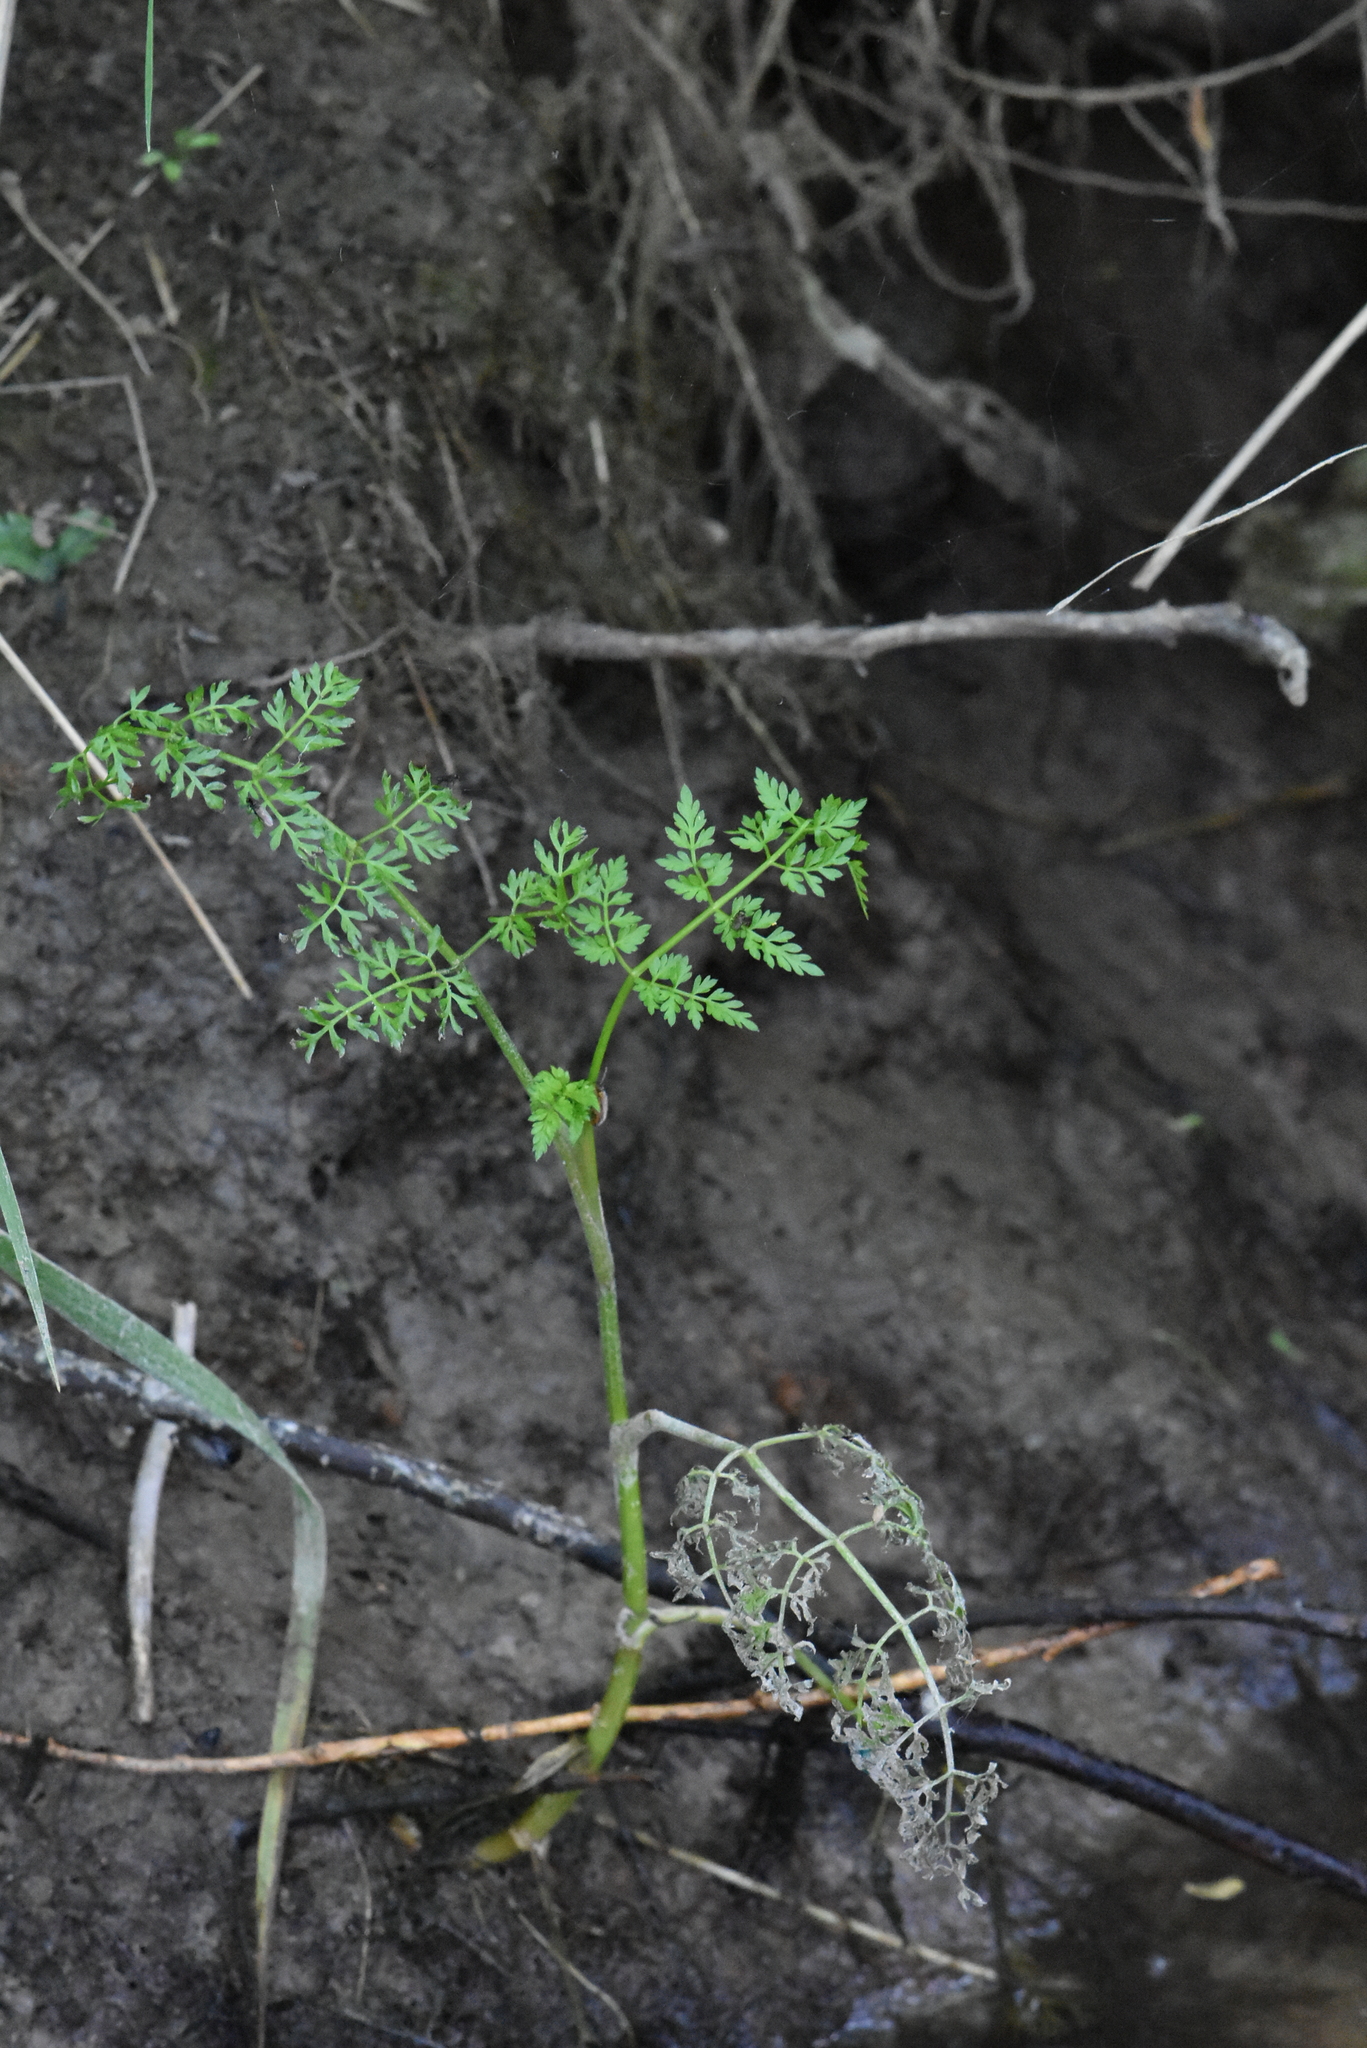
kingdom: Plantae
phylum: Tracheophyta
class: Magnoliopsida
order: Apiales
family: Apiaceae
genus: Oenanthe
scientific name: Oenanthe aquatica
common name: Fine-leaved water-dropwort
